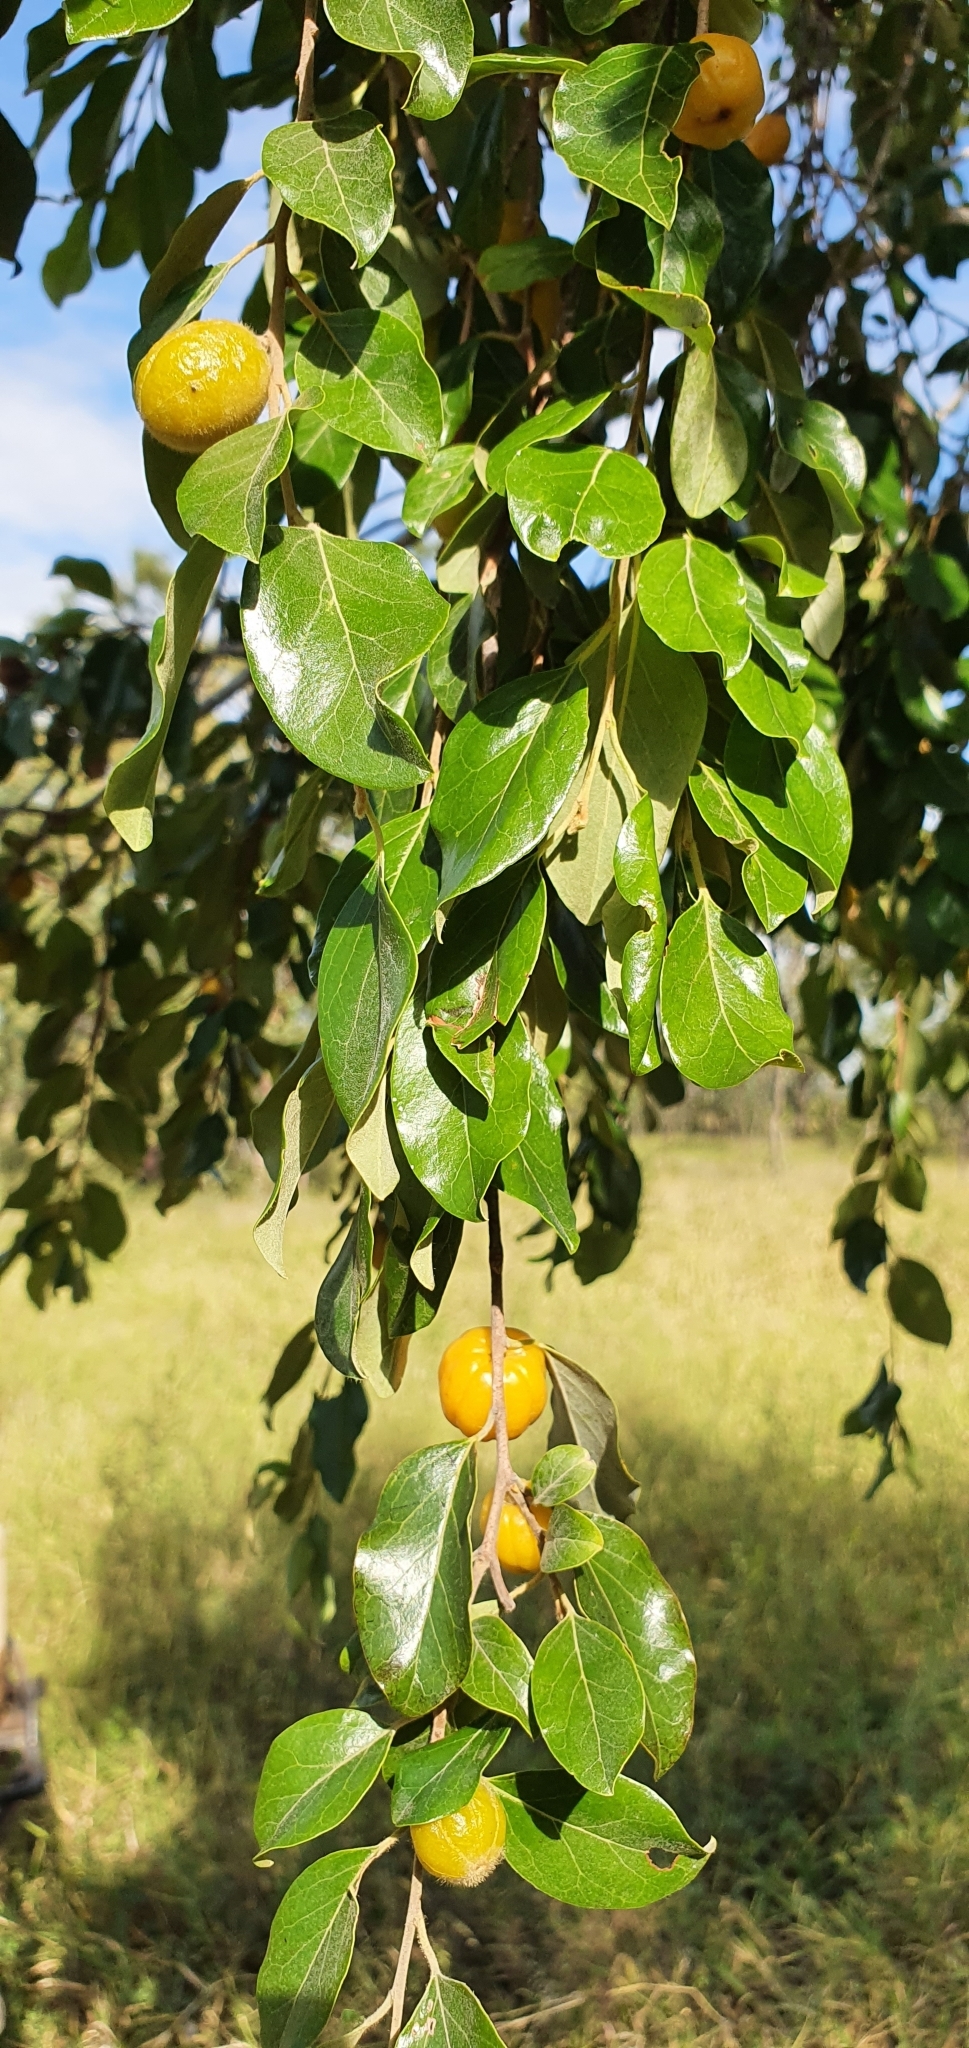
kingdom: Plantae
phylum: Tracheophyta
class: Magnoliopsida
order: Malpighiales
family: Picrodendraceae
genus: Petalostigma
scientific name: Petalostigma pubescens
